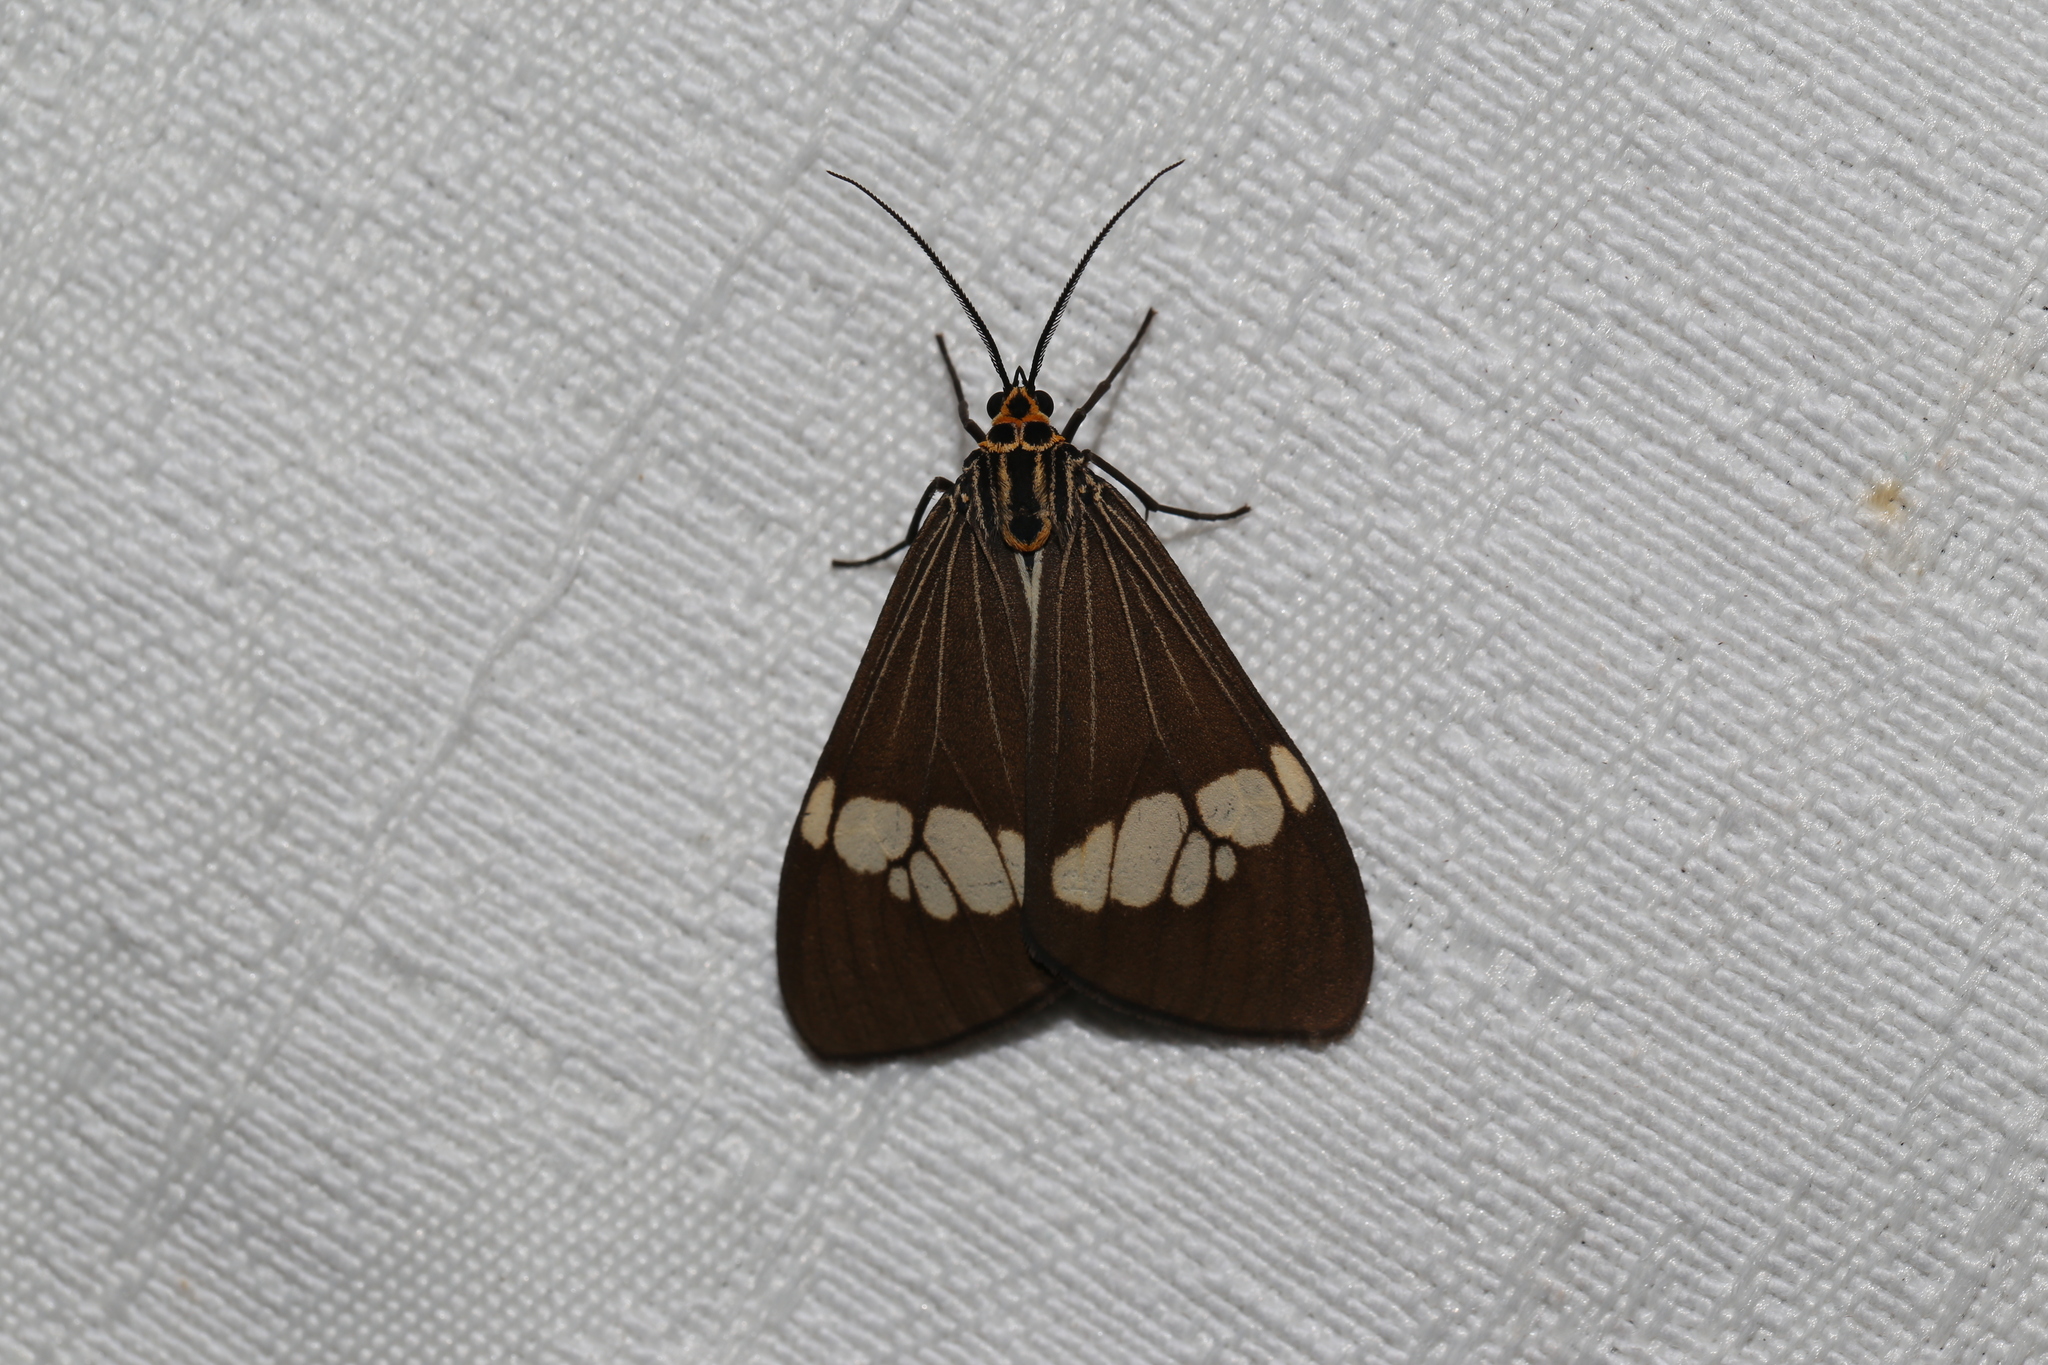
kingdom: Animalia
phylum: Arthropoda
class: Insecta
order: Lepidoptera
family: Erebidae
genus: Nyctemera
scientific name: Nyctemera baulus
